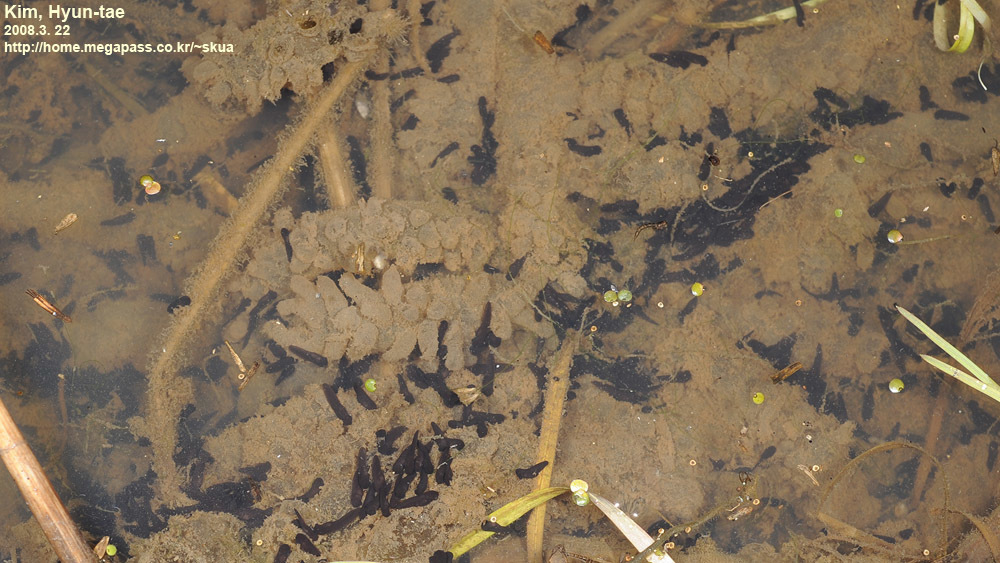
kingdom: Animalia
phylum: Chordata
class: Amphibia
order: Anura
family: Bufonidae
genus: Bufo
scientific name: Bufo gargarizans
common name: Asiatic toad
